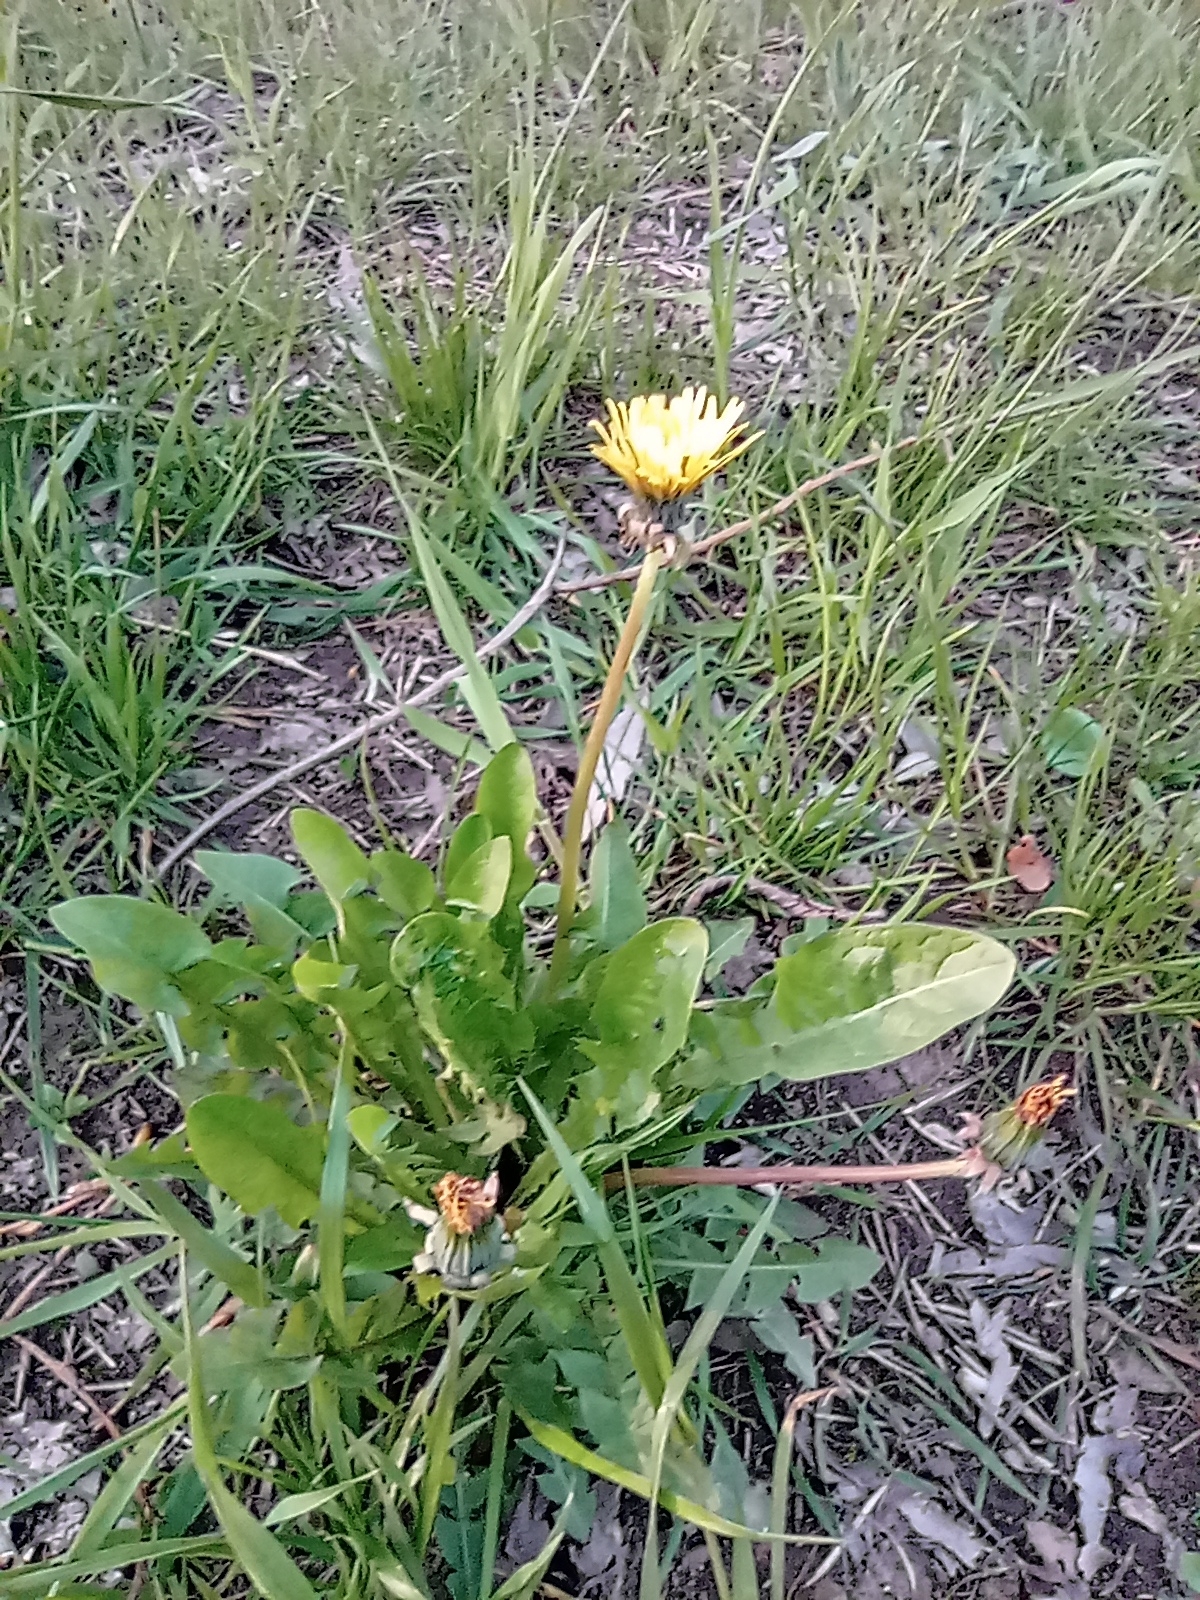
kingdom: Plantae
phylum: Tracheophyta
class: Magnoliopsida
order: Asterales
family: Asteraceae
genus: Taraxacum
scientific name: Taraxacum officinale
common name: Common dandelion
